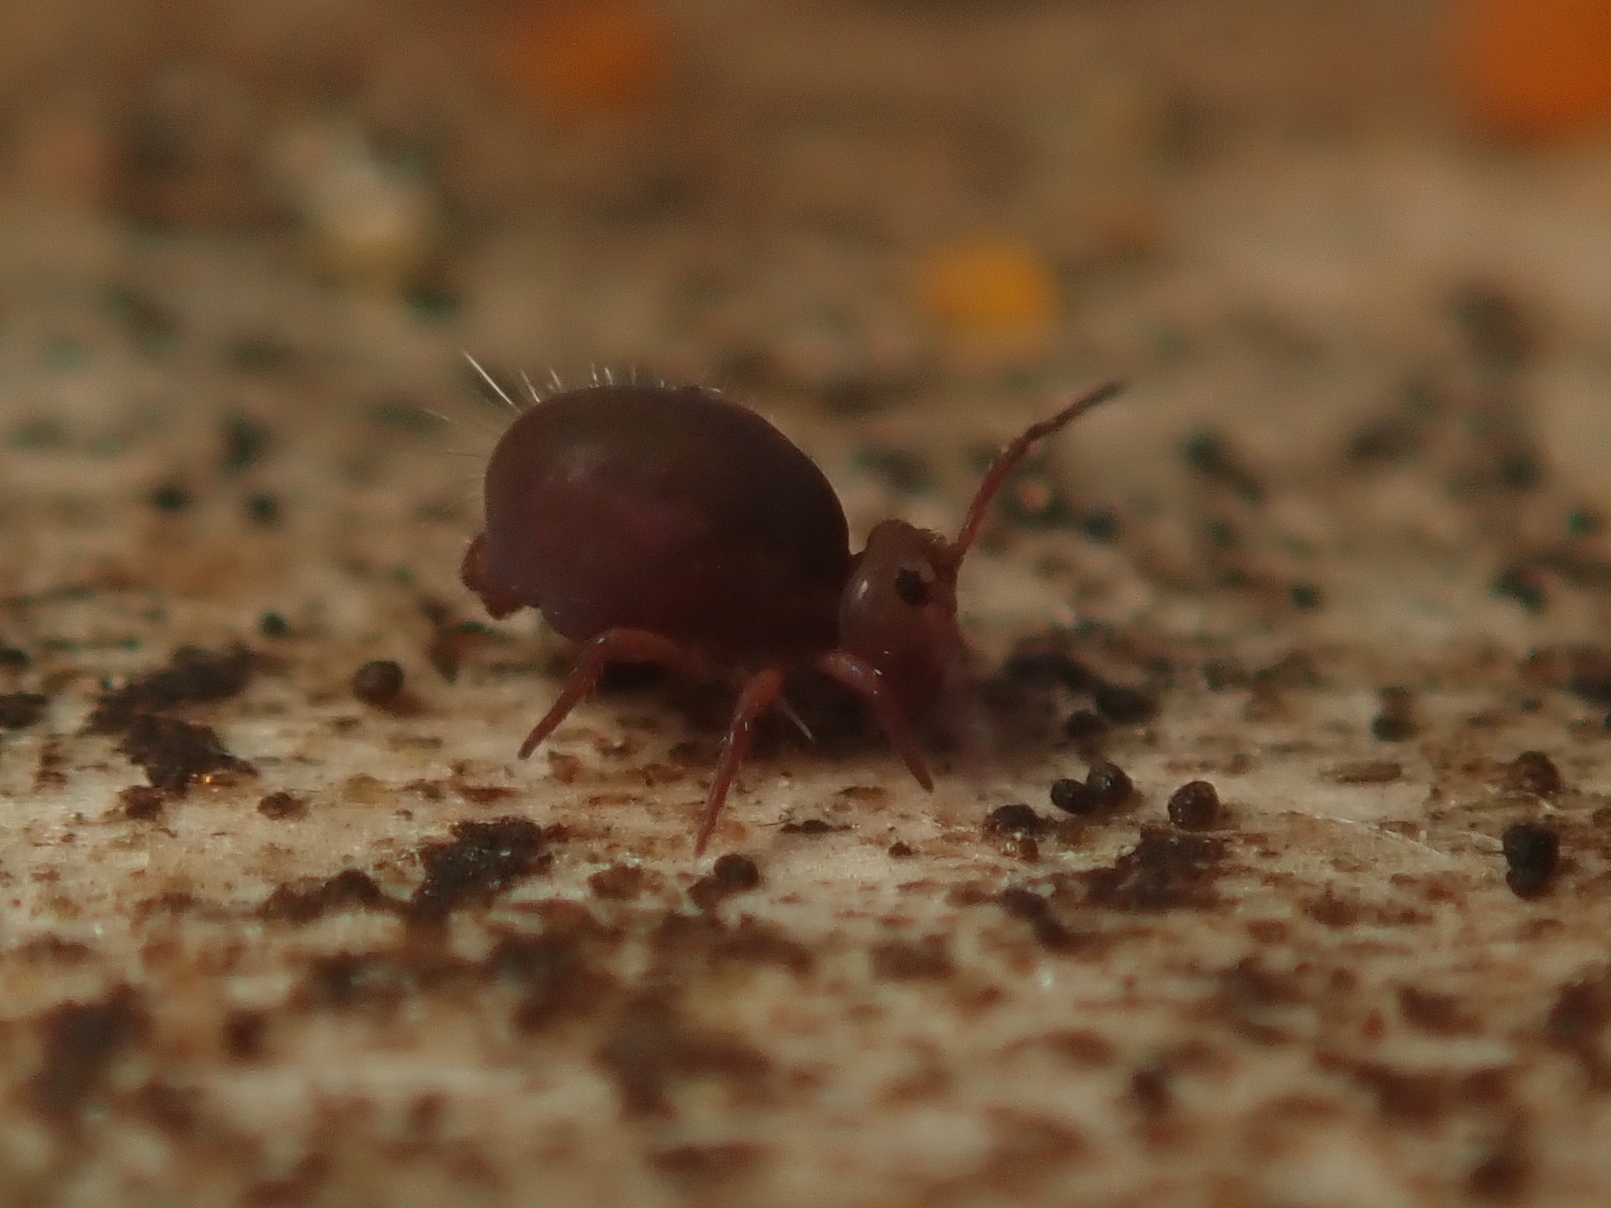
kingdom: Animalia
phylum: Arthropoda
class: Collembola
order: Symphypleona
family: Dicyrtomidae
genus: Dicyrtoma
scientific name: Dicyrtoma fusca
